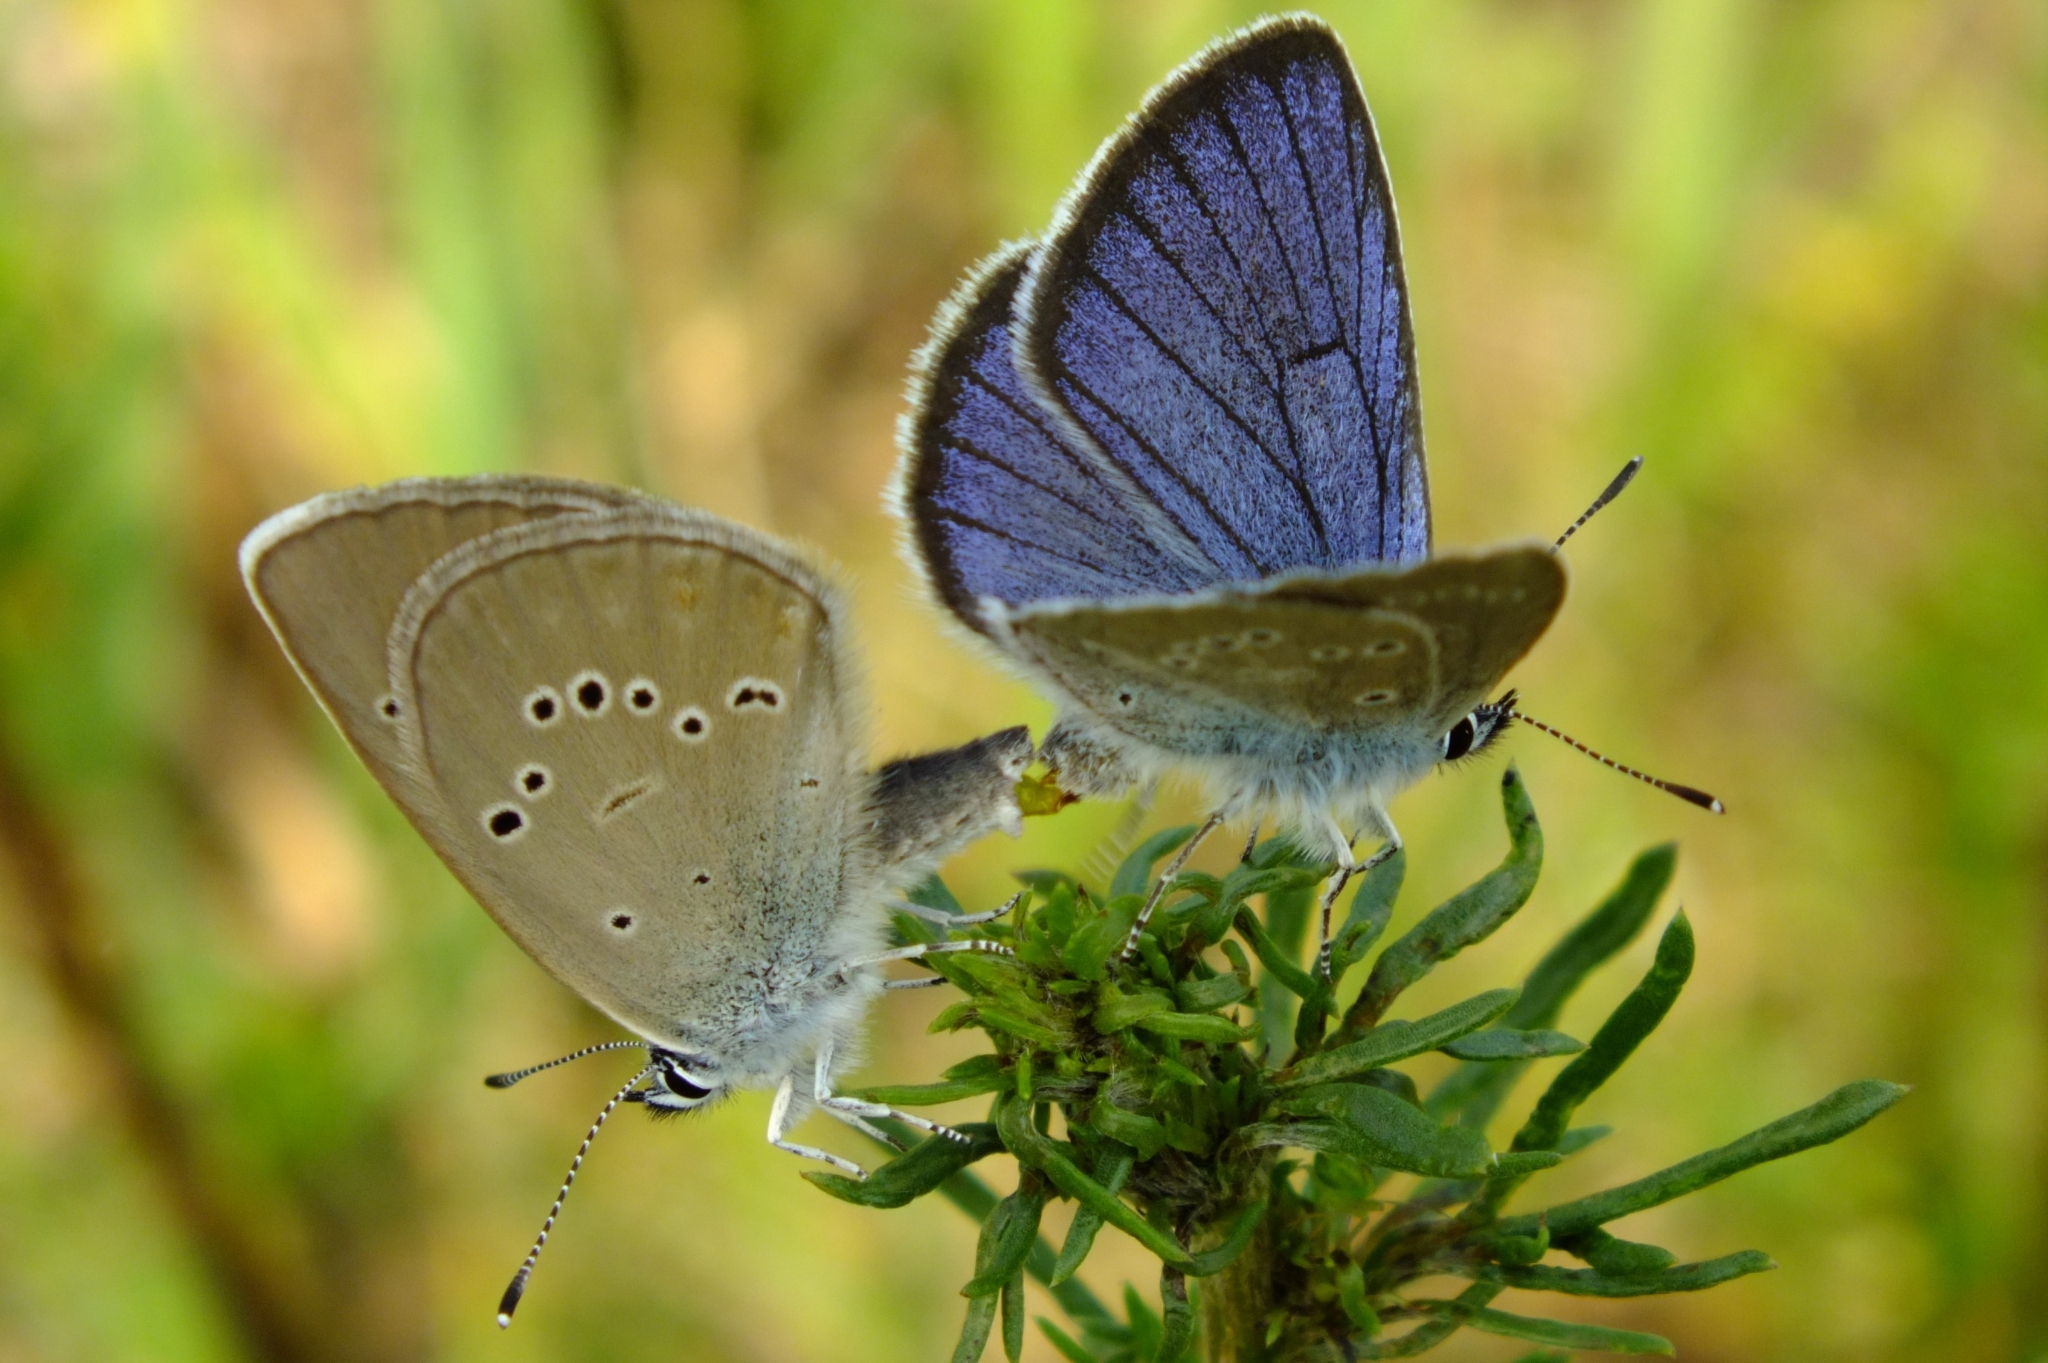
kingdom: Animalia
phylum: Arthropoda
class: Insecta
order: Lepidoptera
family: Lycaenidae
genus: Cyaniris
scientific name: Cyaniris semiargus
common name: Mazarine blue
